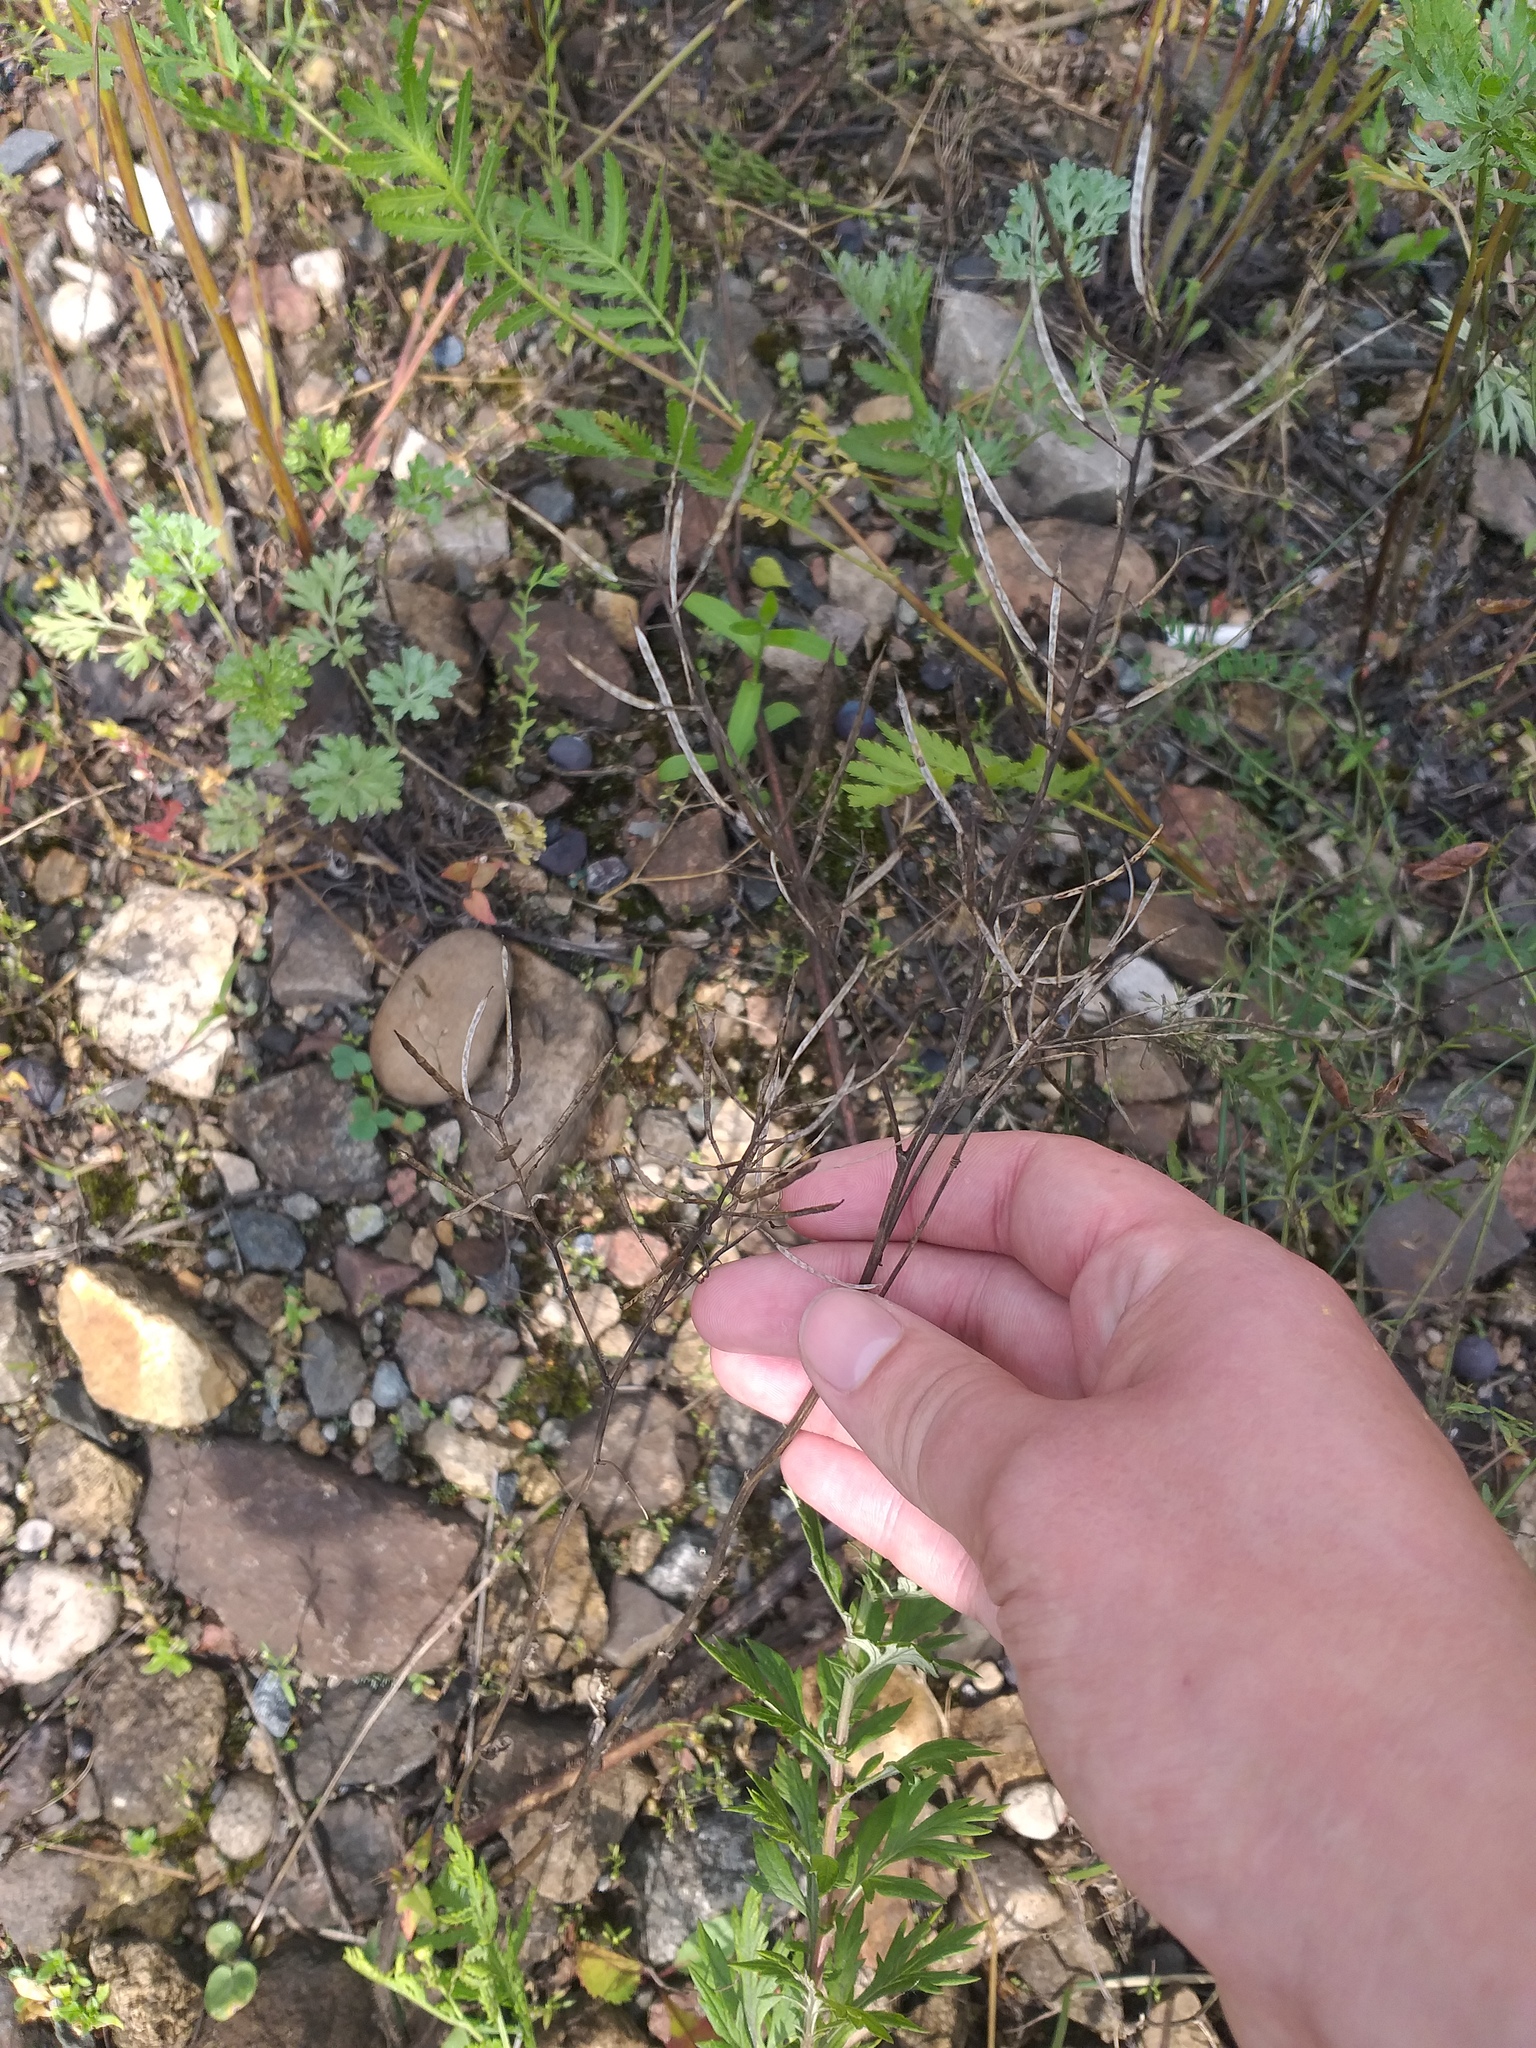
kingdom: Plantae
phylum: Tracheophyta
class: Magnoliopsida
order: Brassicales
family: Brassicaceae
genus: Barbarea
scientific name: Barbarea vulgaris
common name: Cressy-greens
